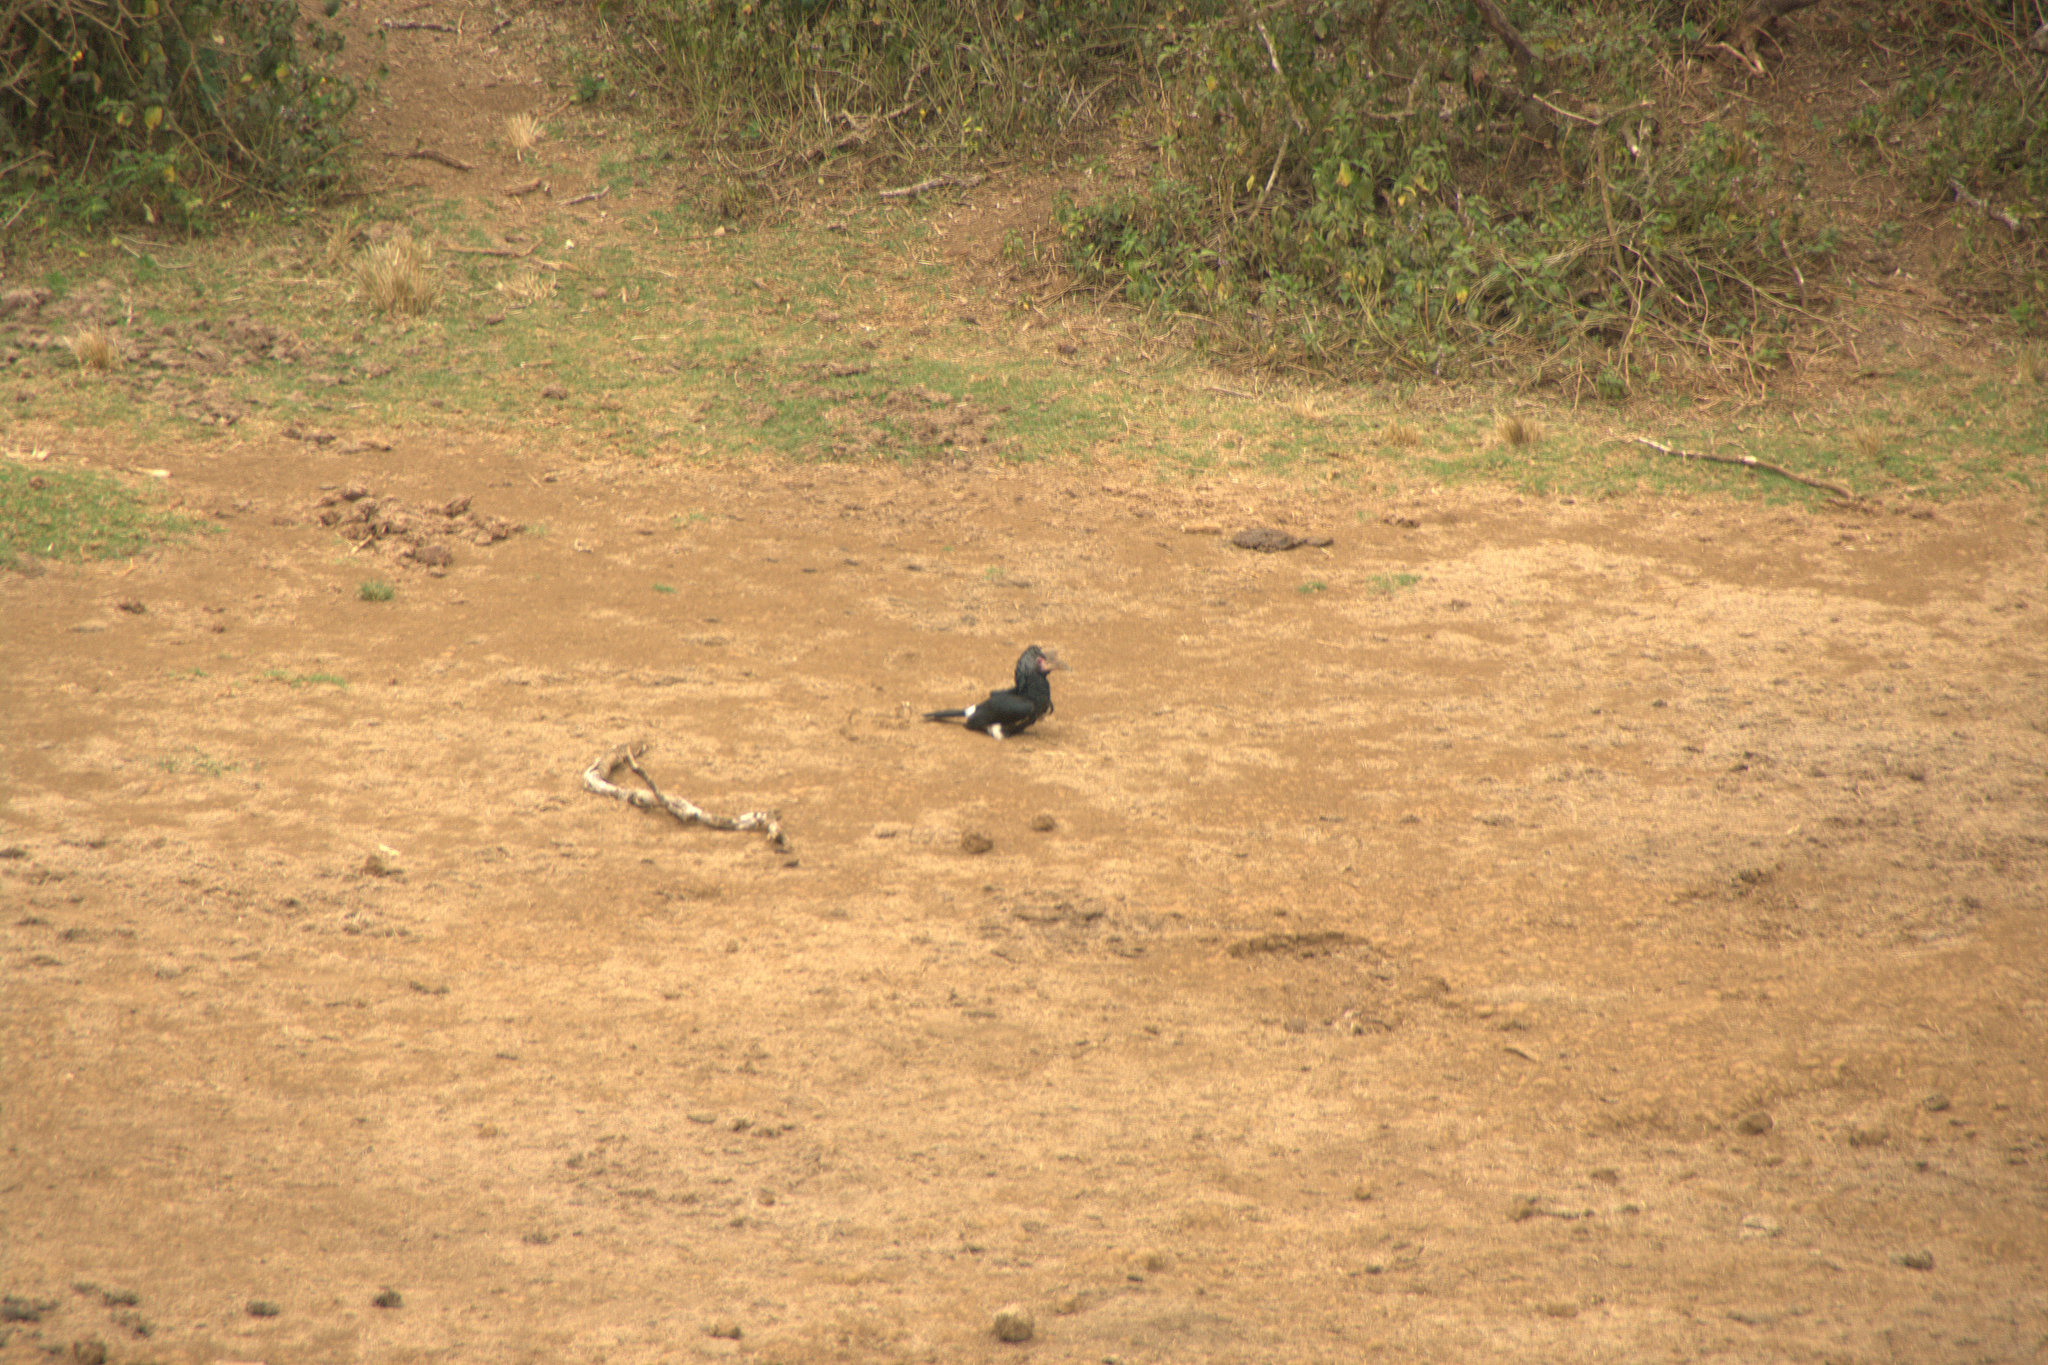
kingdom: Animalia
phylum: Chordata
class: Aves
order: Bucerotiformes
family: Bucerotidae
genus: Bycanistes
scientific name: Bycanistes brevis
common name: Silvery-cheeked hornbill
